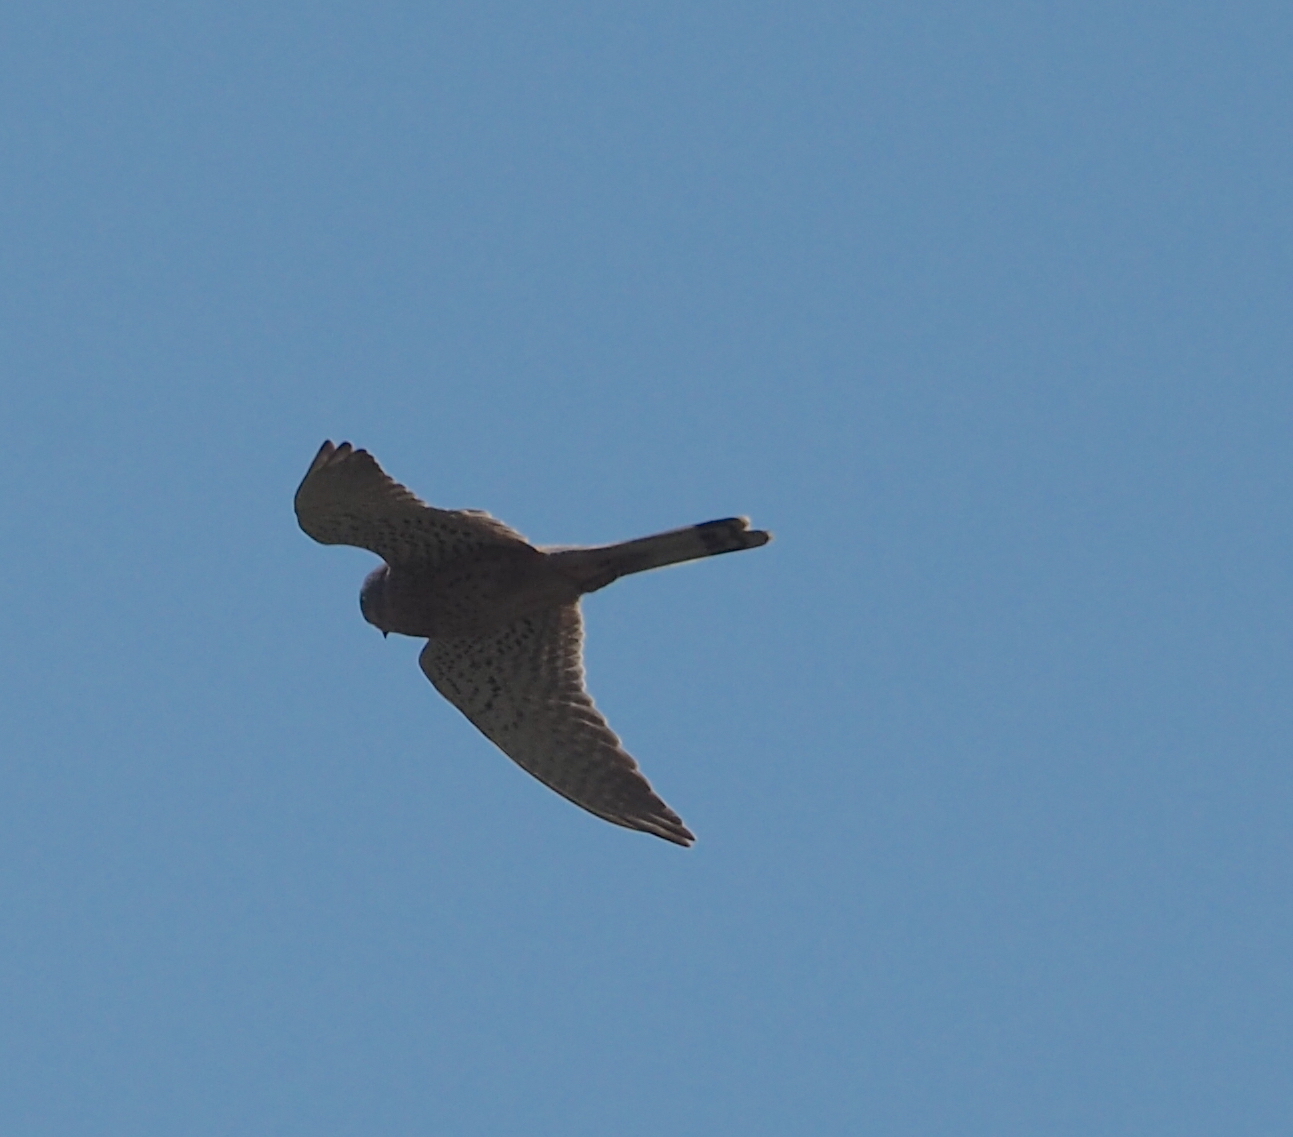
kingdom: Animalia
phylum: Chordata
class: Aves
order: Falconiformes
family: Falconidae
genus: Falco
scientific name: Falco tinnunculus
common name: Common kestrel
